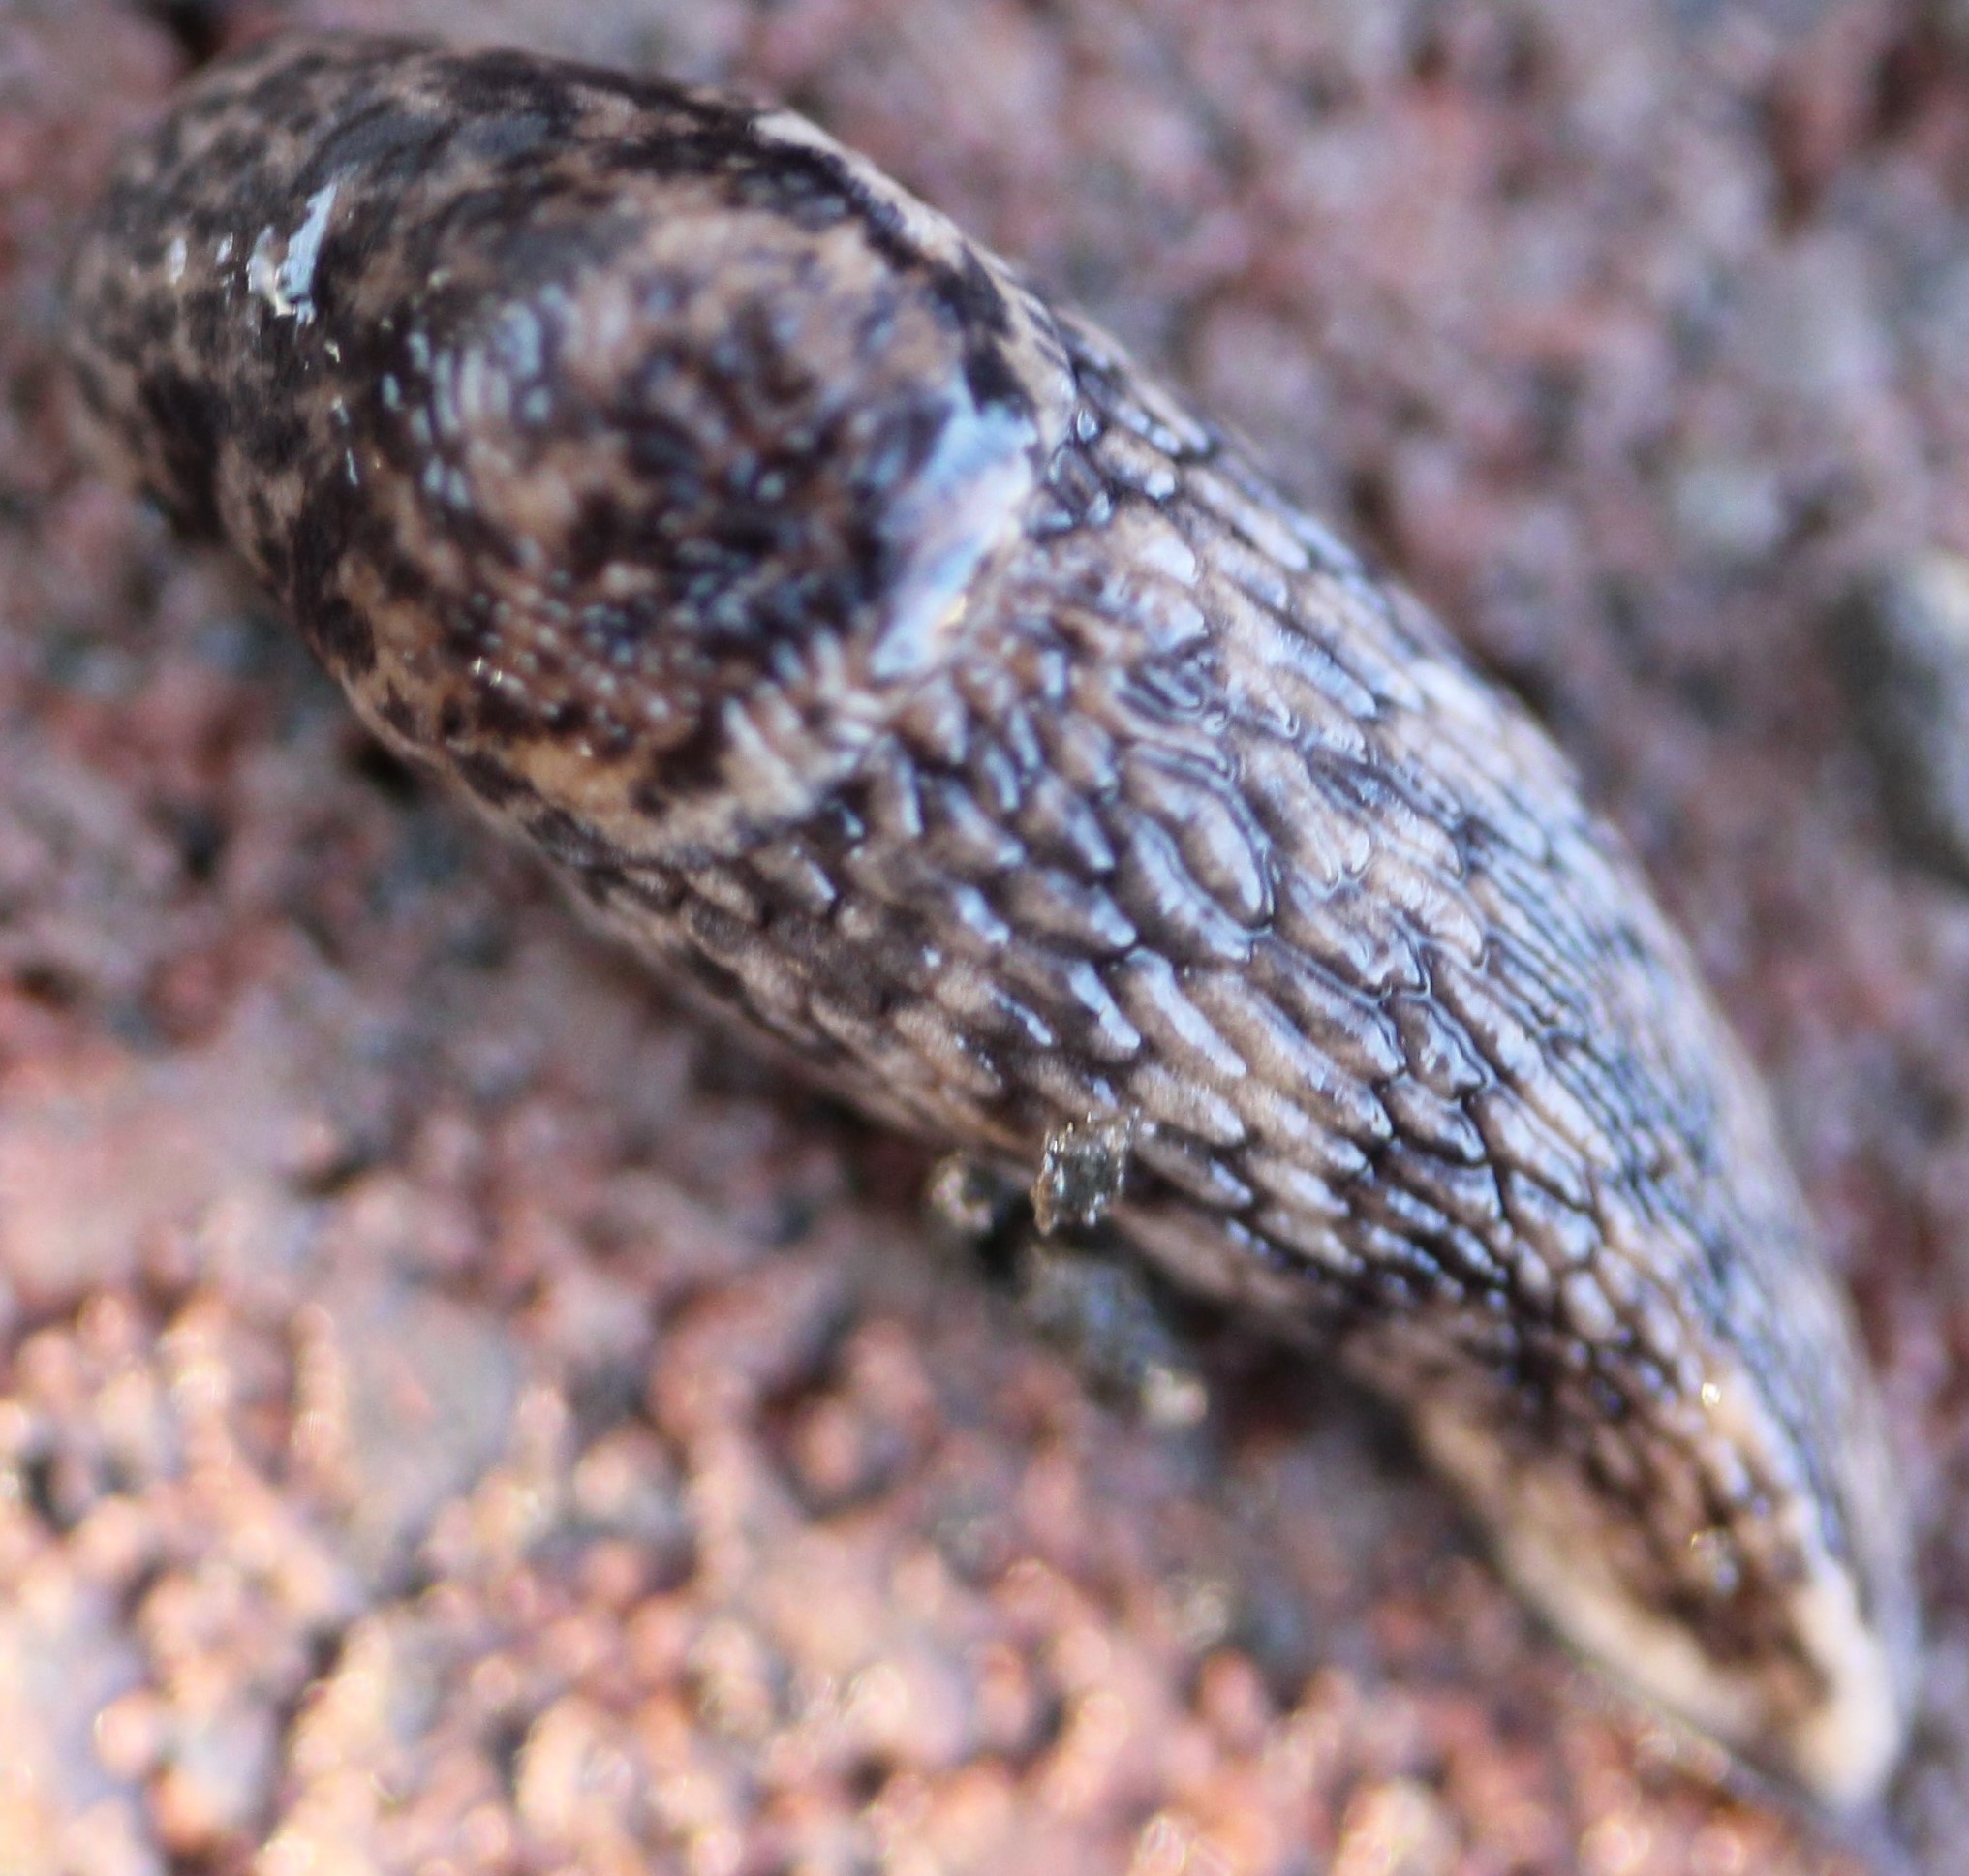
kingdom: Animalia
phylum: Mollusca
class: Gastropoda
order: Stylommatophora
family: Agriolimacidae
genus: Deroceras
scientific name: Deroceras reticulatum
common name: Gray field slug
